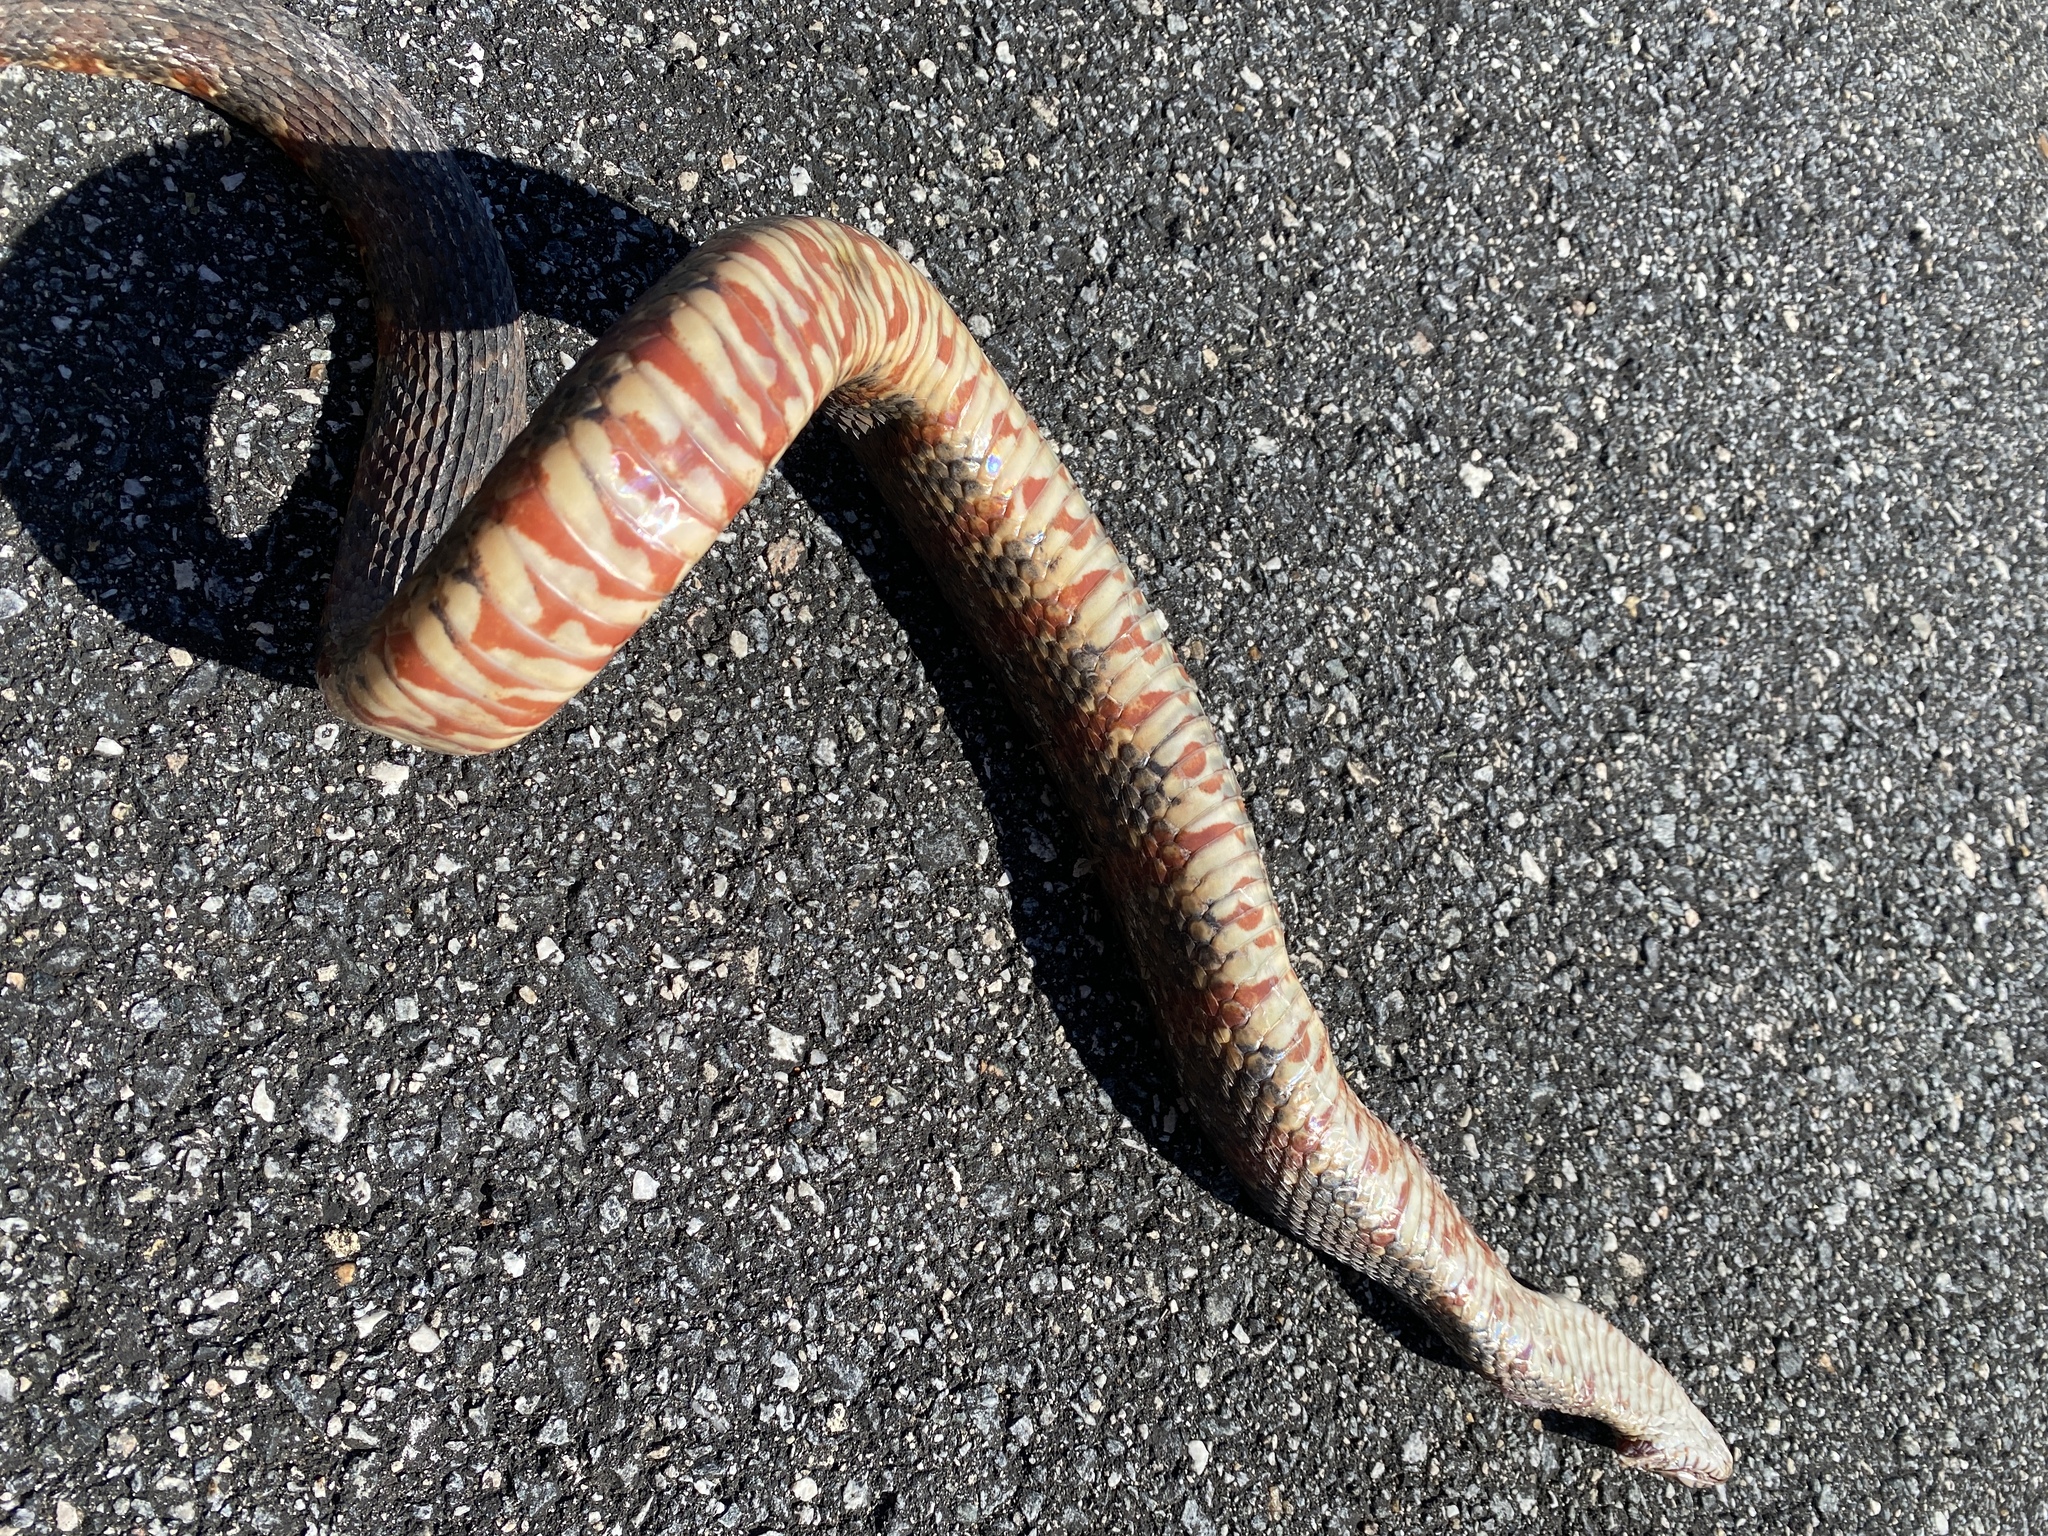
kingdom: Animalia
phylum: Chordata
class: Squamata
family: Colubridae
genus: Nerodia
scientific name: Nerodia fasciata
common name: Southern water snake
